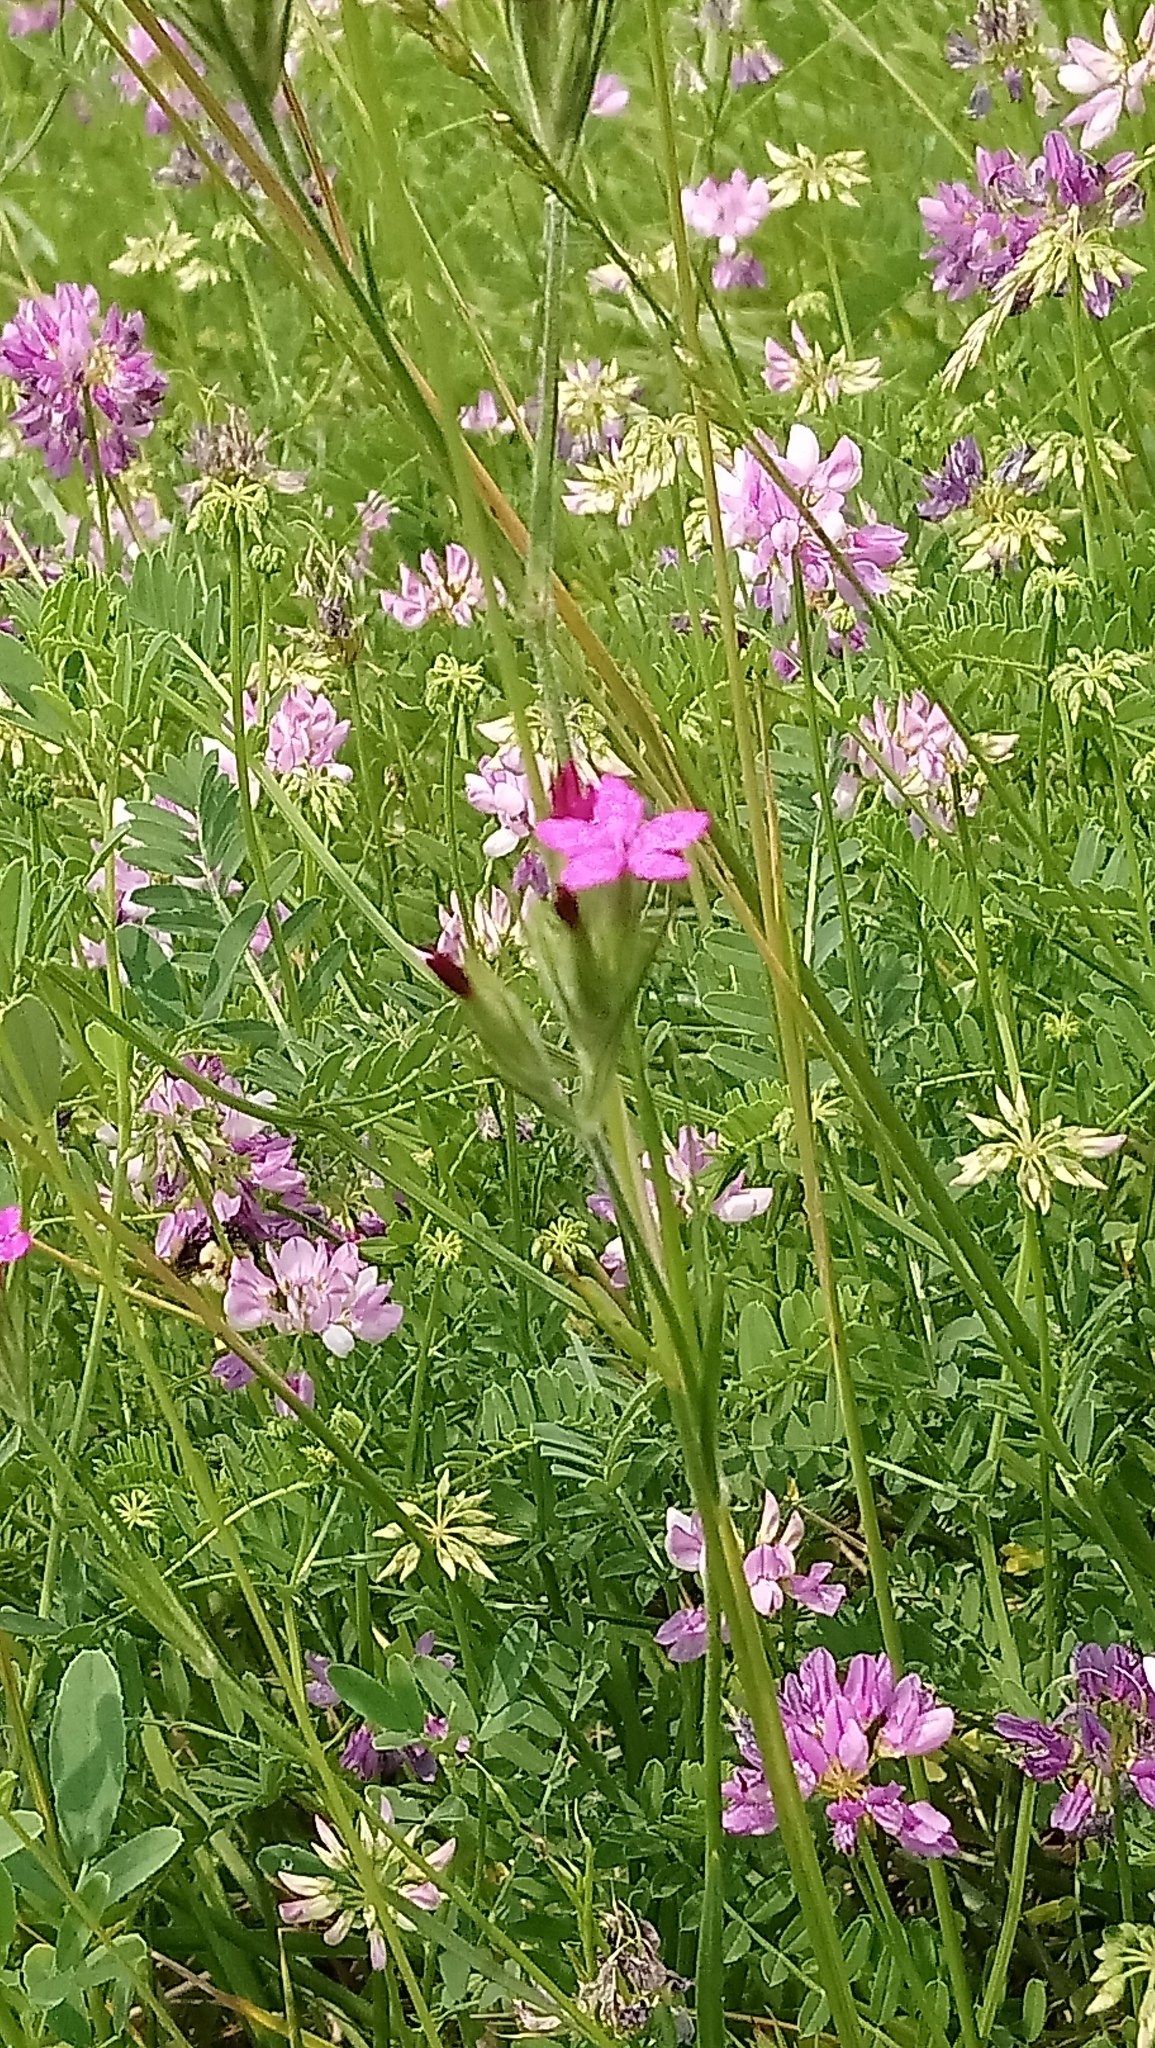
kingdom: Plantae
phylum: Tracheophyta
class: Magnoliopsida
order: Caryophyllales
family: Caryophyllaceae
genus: Dianthus
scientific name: Dianthus armeria
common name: Deptford pink
